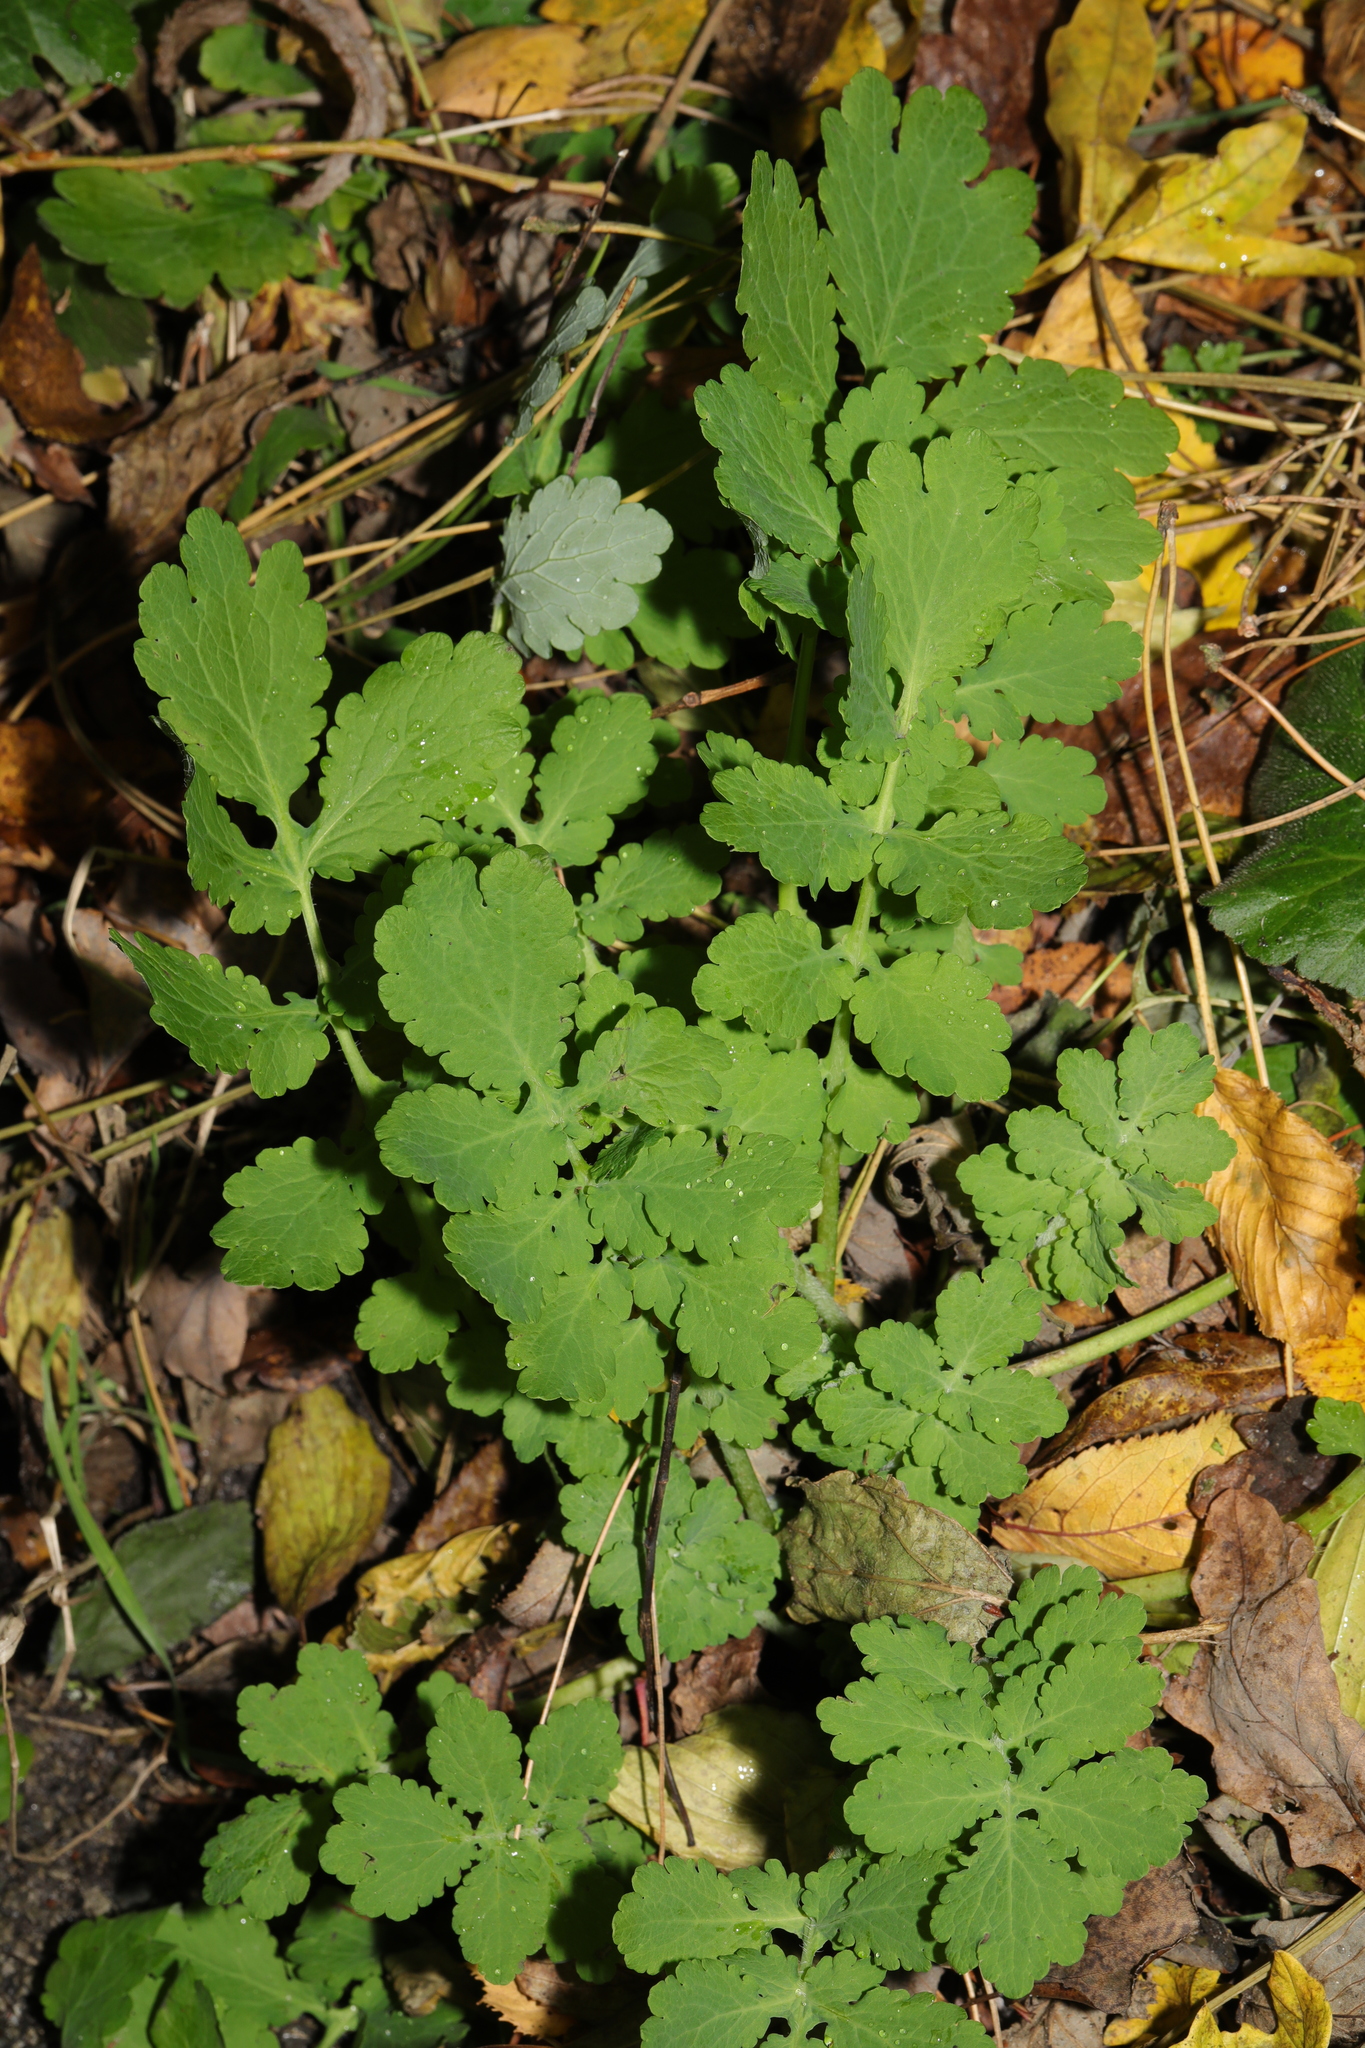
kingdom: Plantae
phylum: Tracheophyta
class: Magnoliopsida
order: Ranunculales
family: Papaveraceae
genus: Chelidonium
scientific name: Chelidonium majus
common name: Greater celandine
